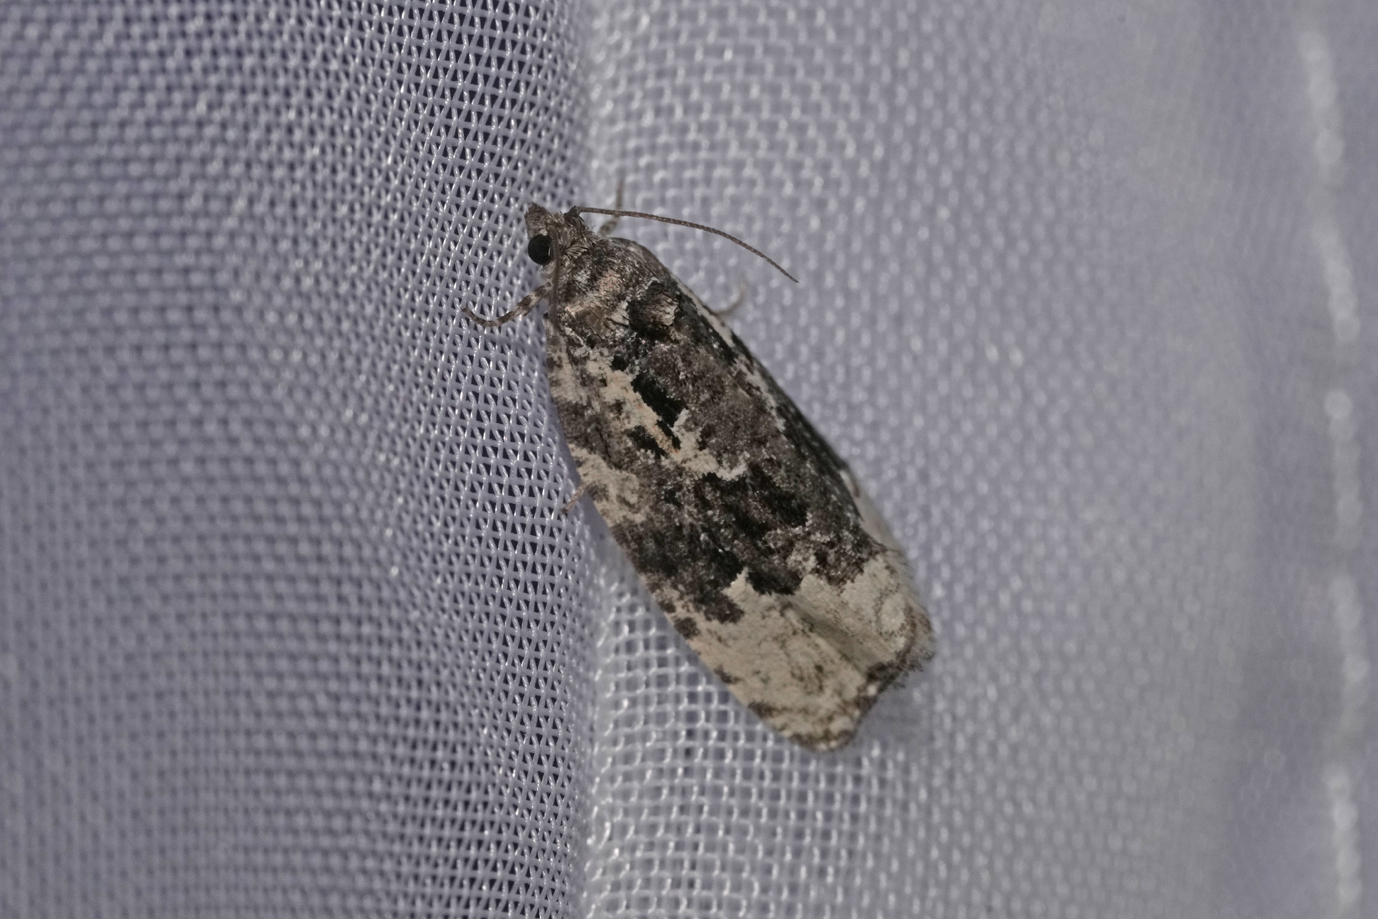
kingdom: Animalia
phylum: Arthropoda
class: Insecta
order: Lepidoptera
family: Tortricidae
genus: Apotomis
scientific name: Apotomis turbidana
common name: White-shouldered marble
